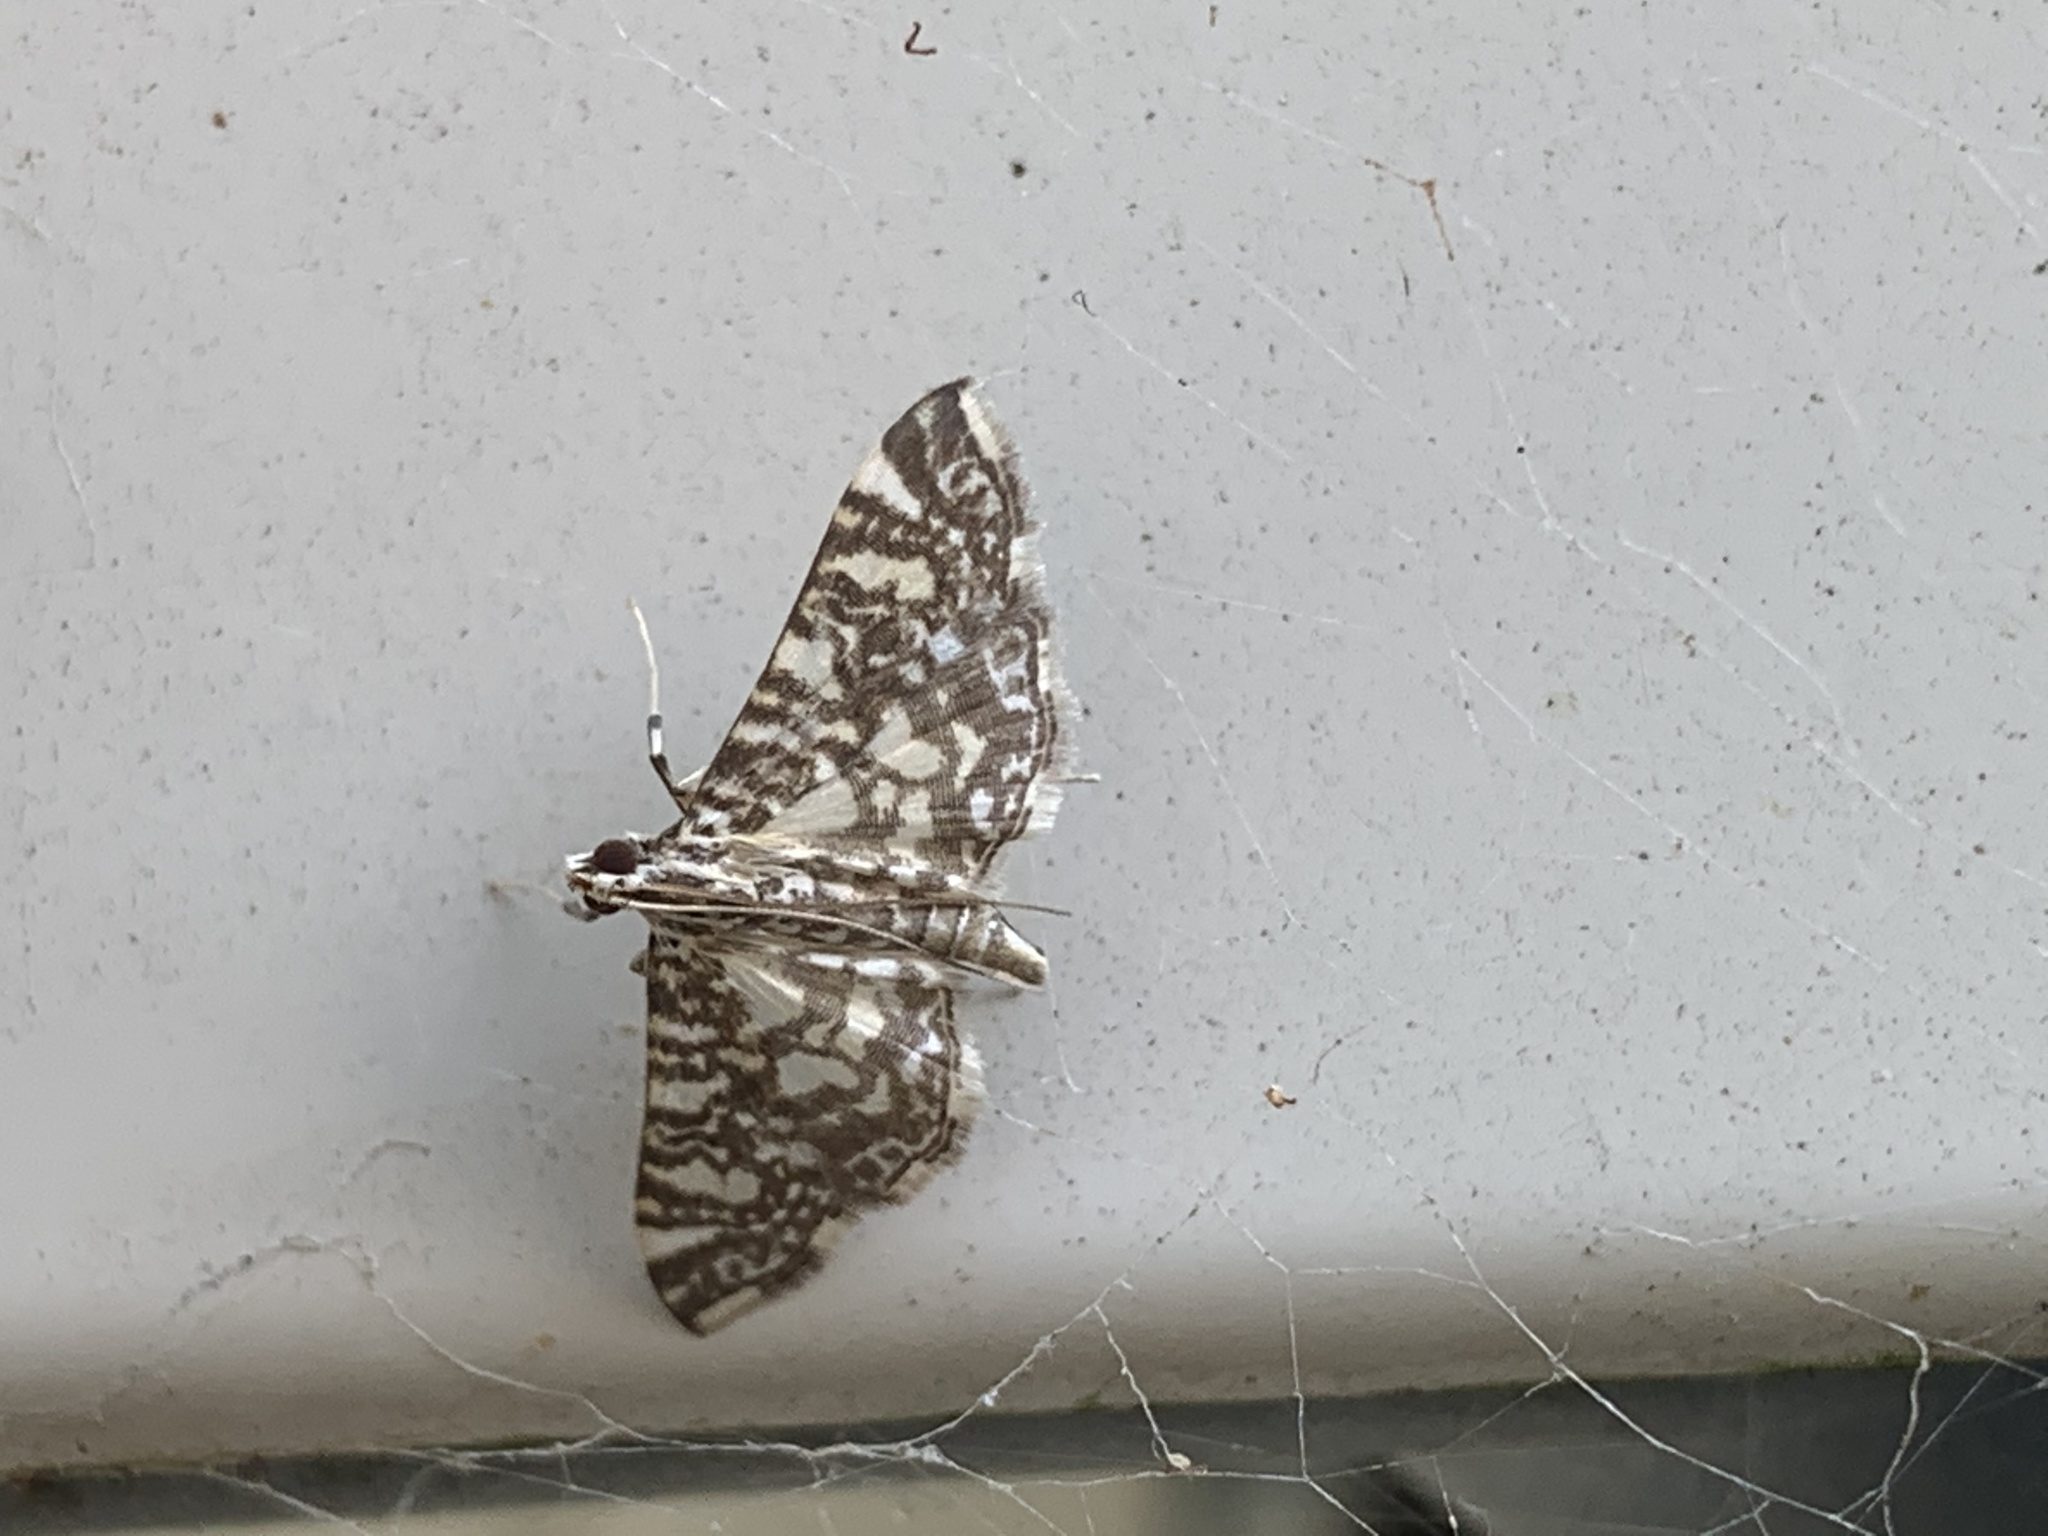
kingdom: Animalia
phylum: Arthropoda
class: Insecta
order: Lepidoptera
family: Crambidae
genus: Glyphodes
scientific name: Glyphodes onychinalis
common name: Swan plant moth
